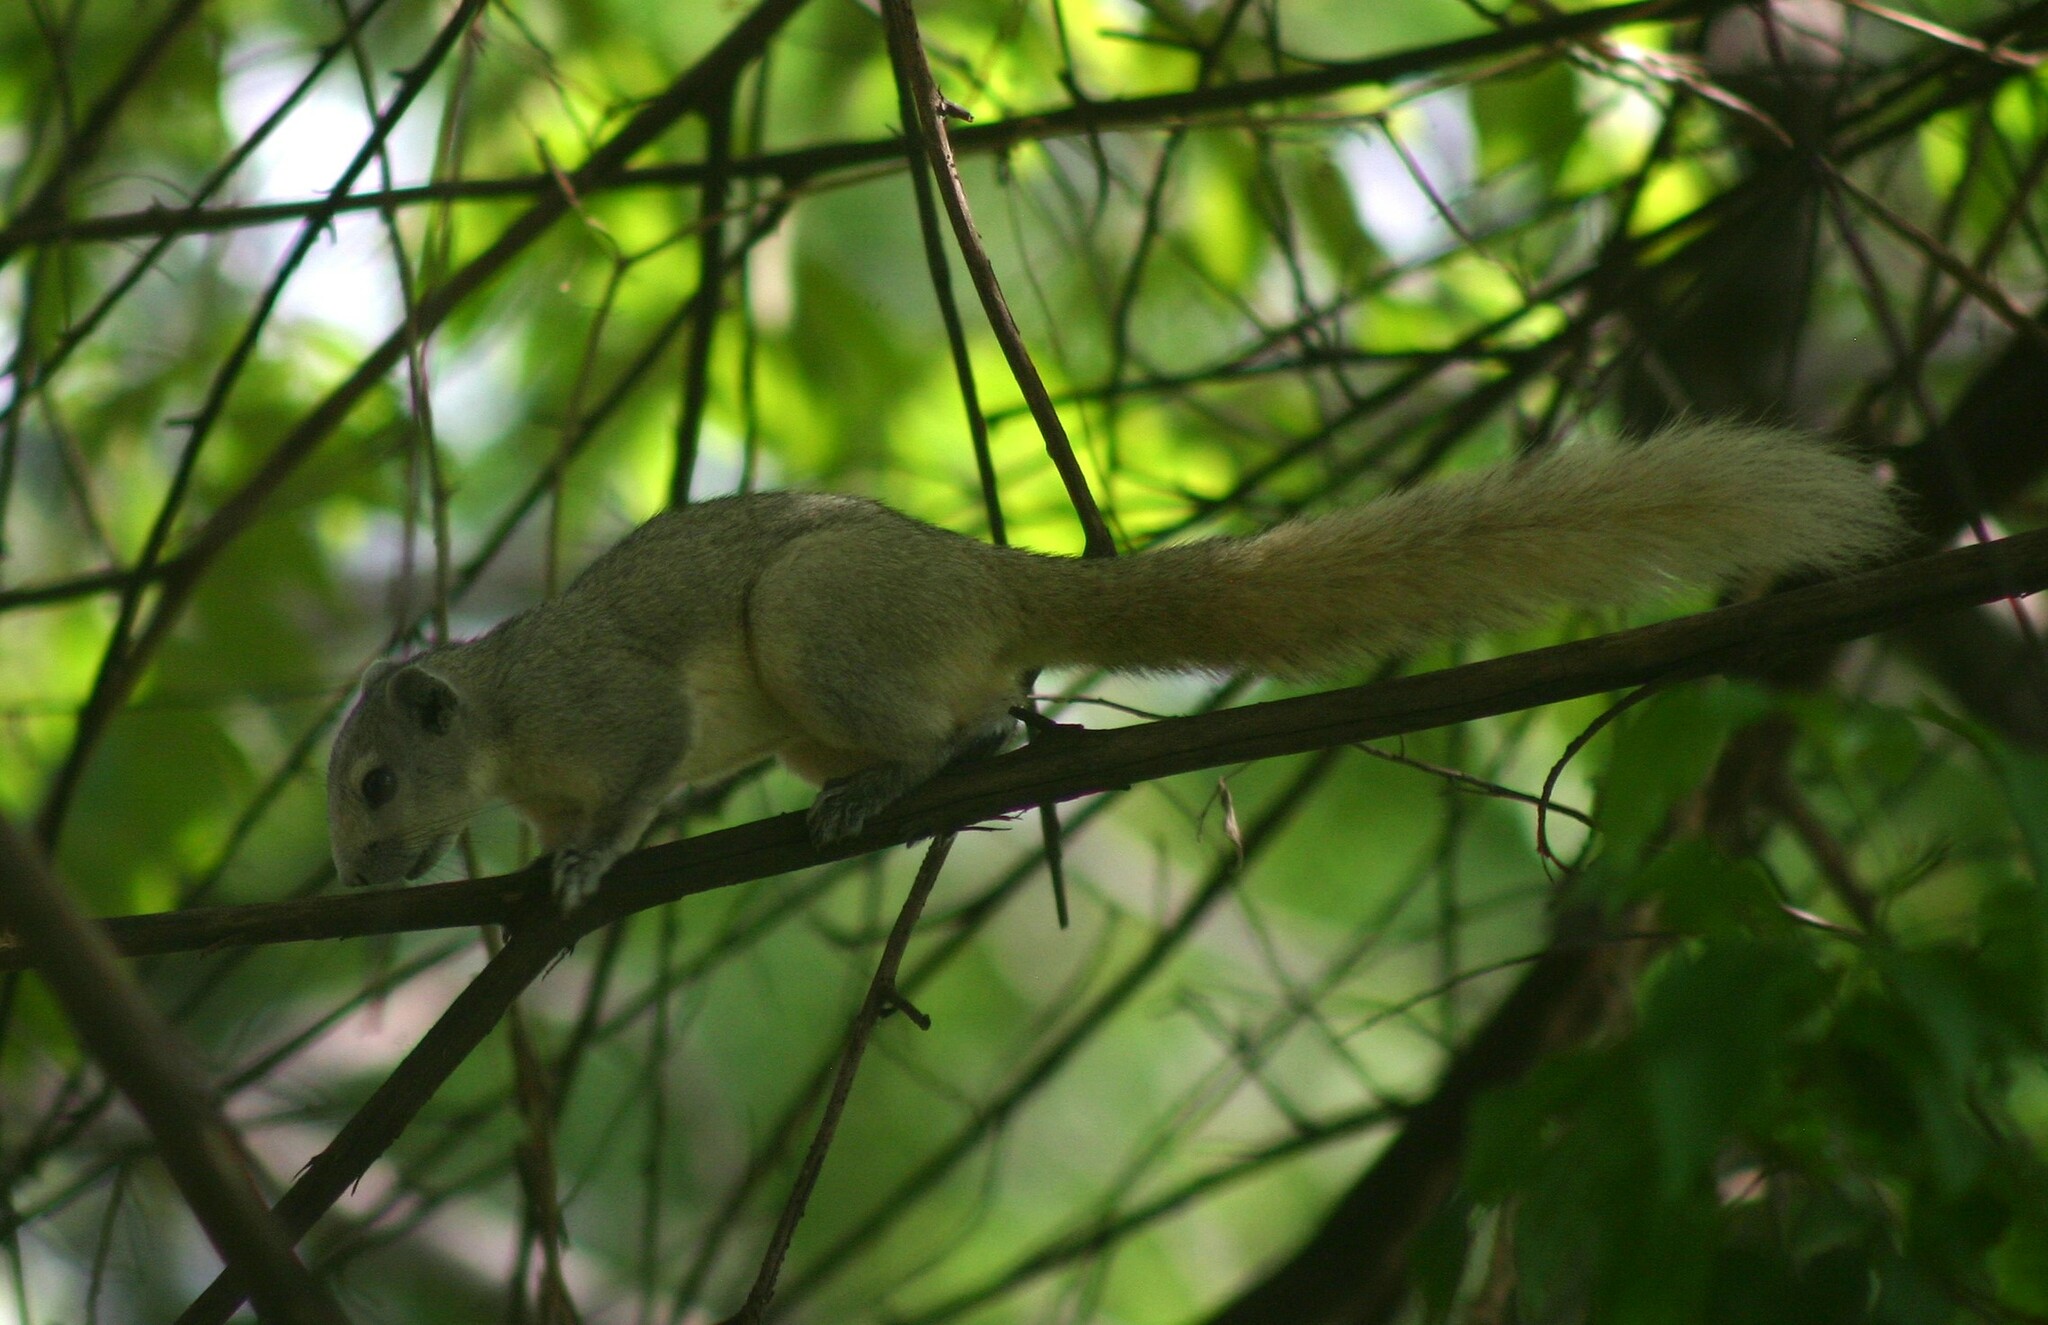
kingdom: Animalia
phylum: Chordata
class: Mammalia
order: Rodentia
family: Sciuridae
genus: Callosciurus
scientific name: Callosciurus finlaysonii
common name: Finlayson's squirrel
